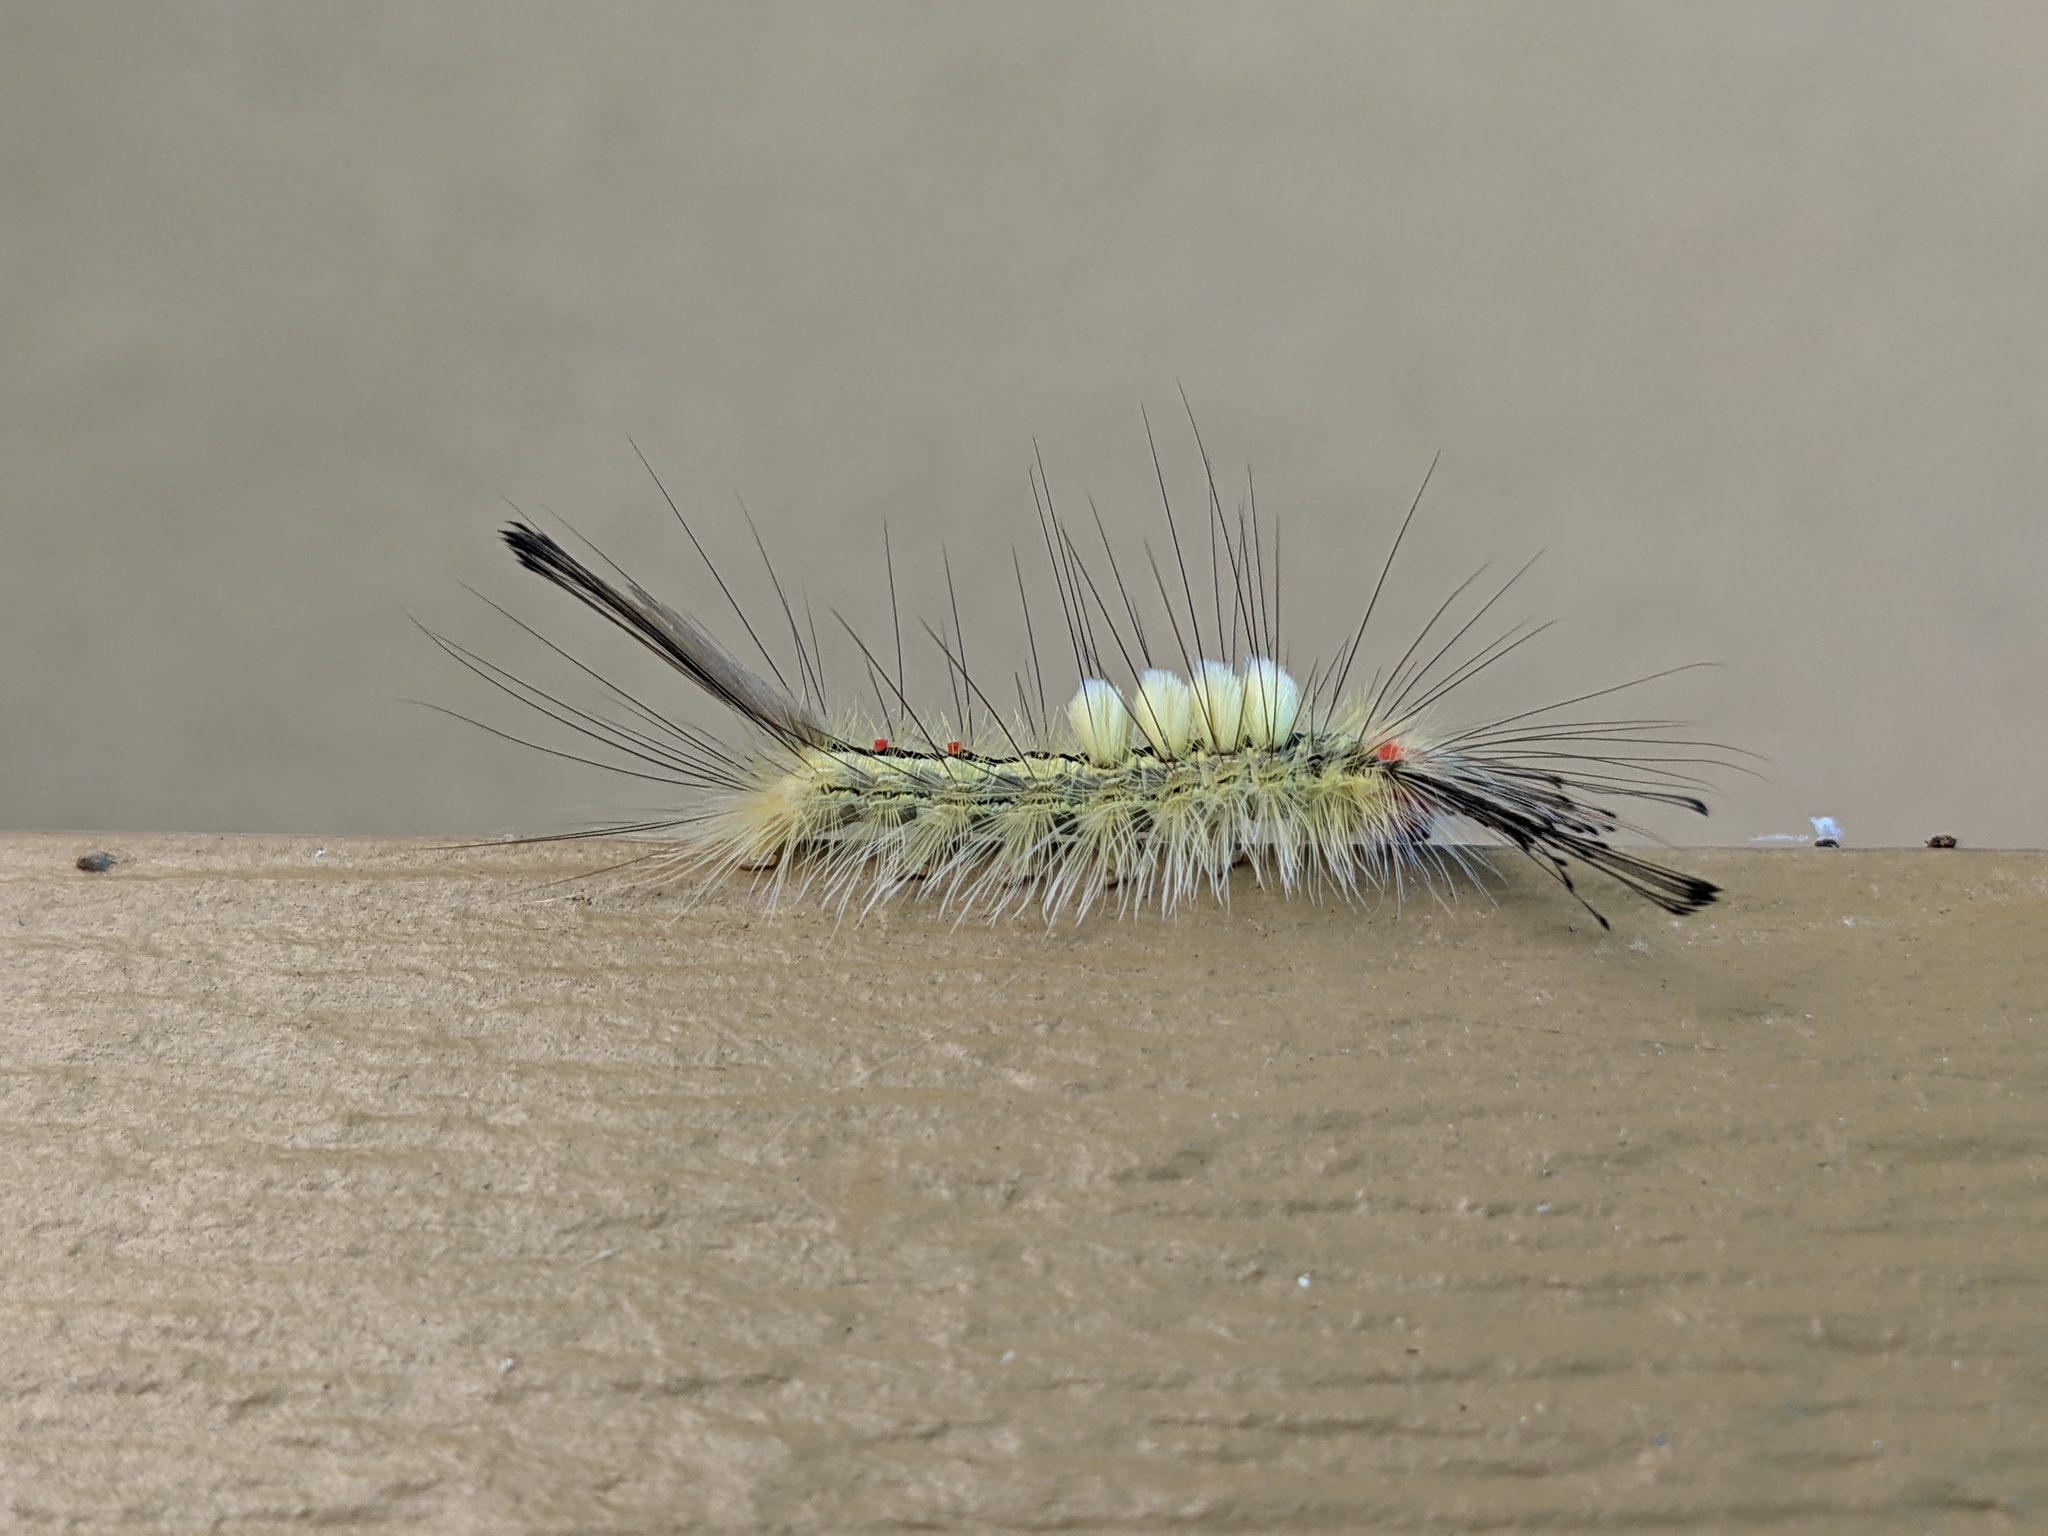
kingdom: Animalia
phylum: Arthropoda
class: Insecta
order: Lepidoptera
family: Erebidae
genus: Orgyia
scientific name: Orgyia leucostigma
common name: White-marked tussock moth
